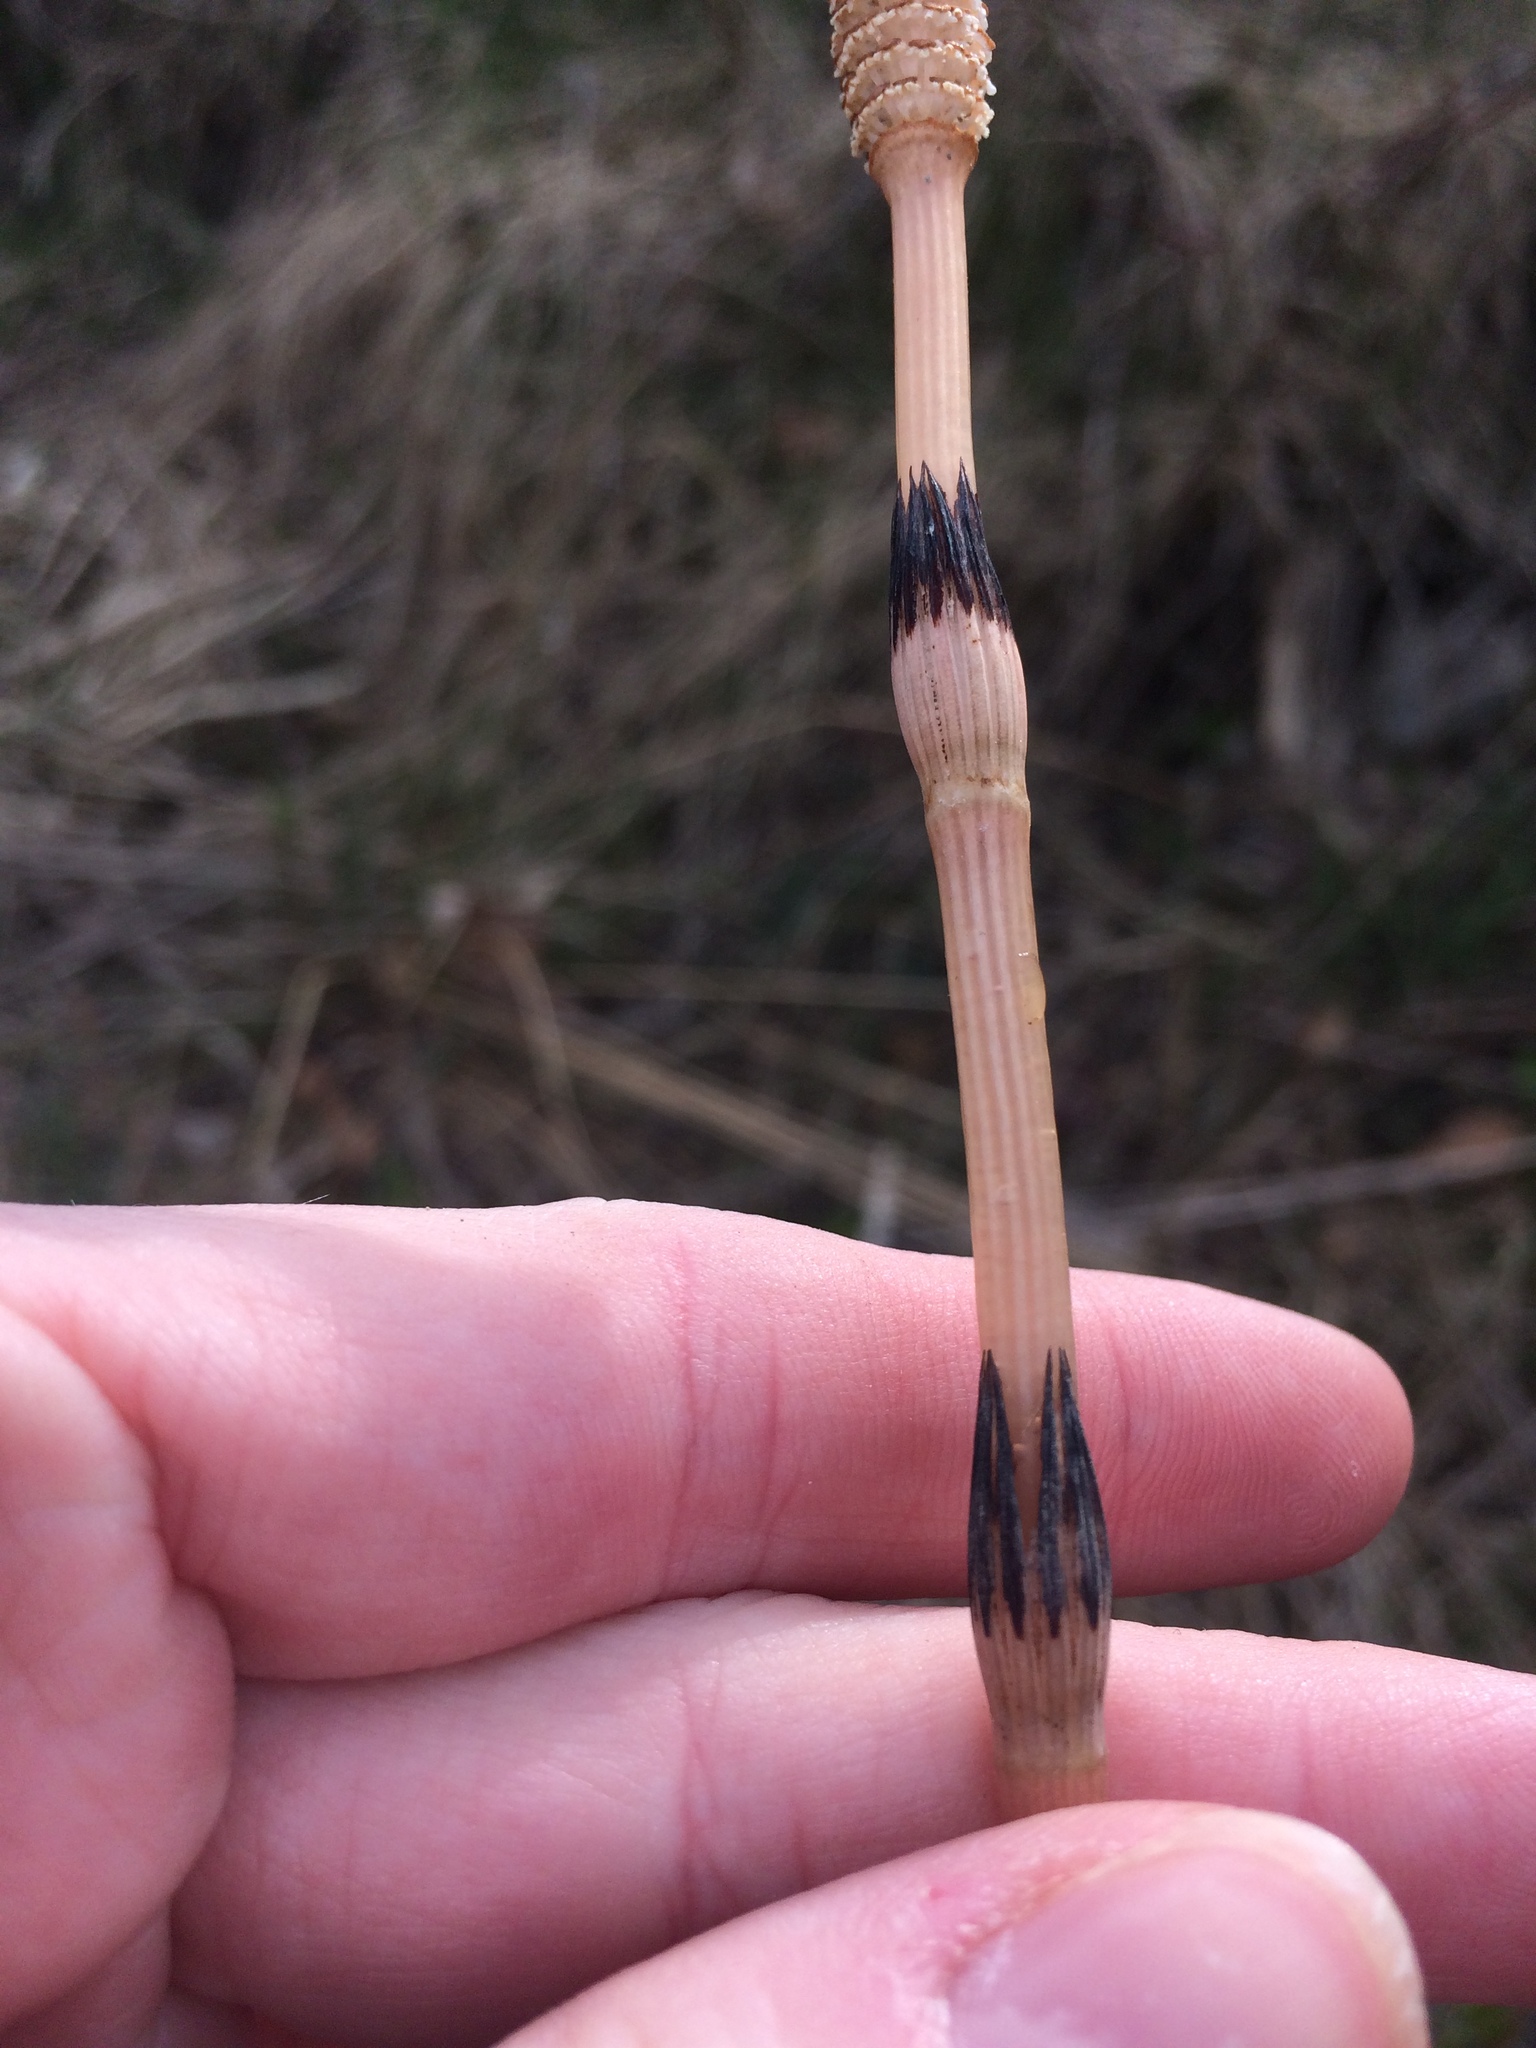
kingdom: Plantae
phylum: Tracheophyta
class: Polypodiopsida
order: Equisetales
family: Equisetaceae
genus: Equisetum
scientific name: Equisetum arvense
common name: Field horsetail
